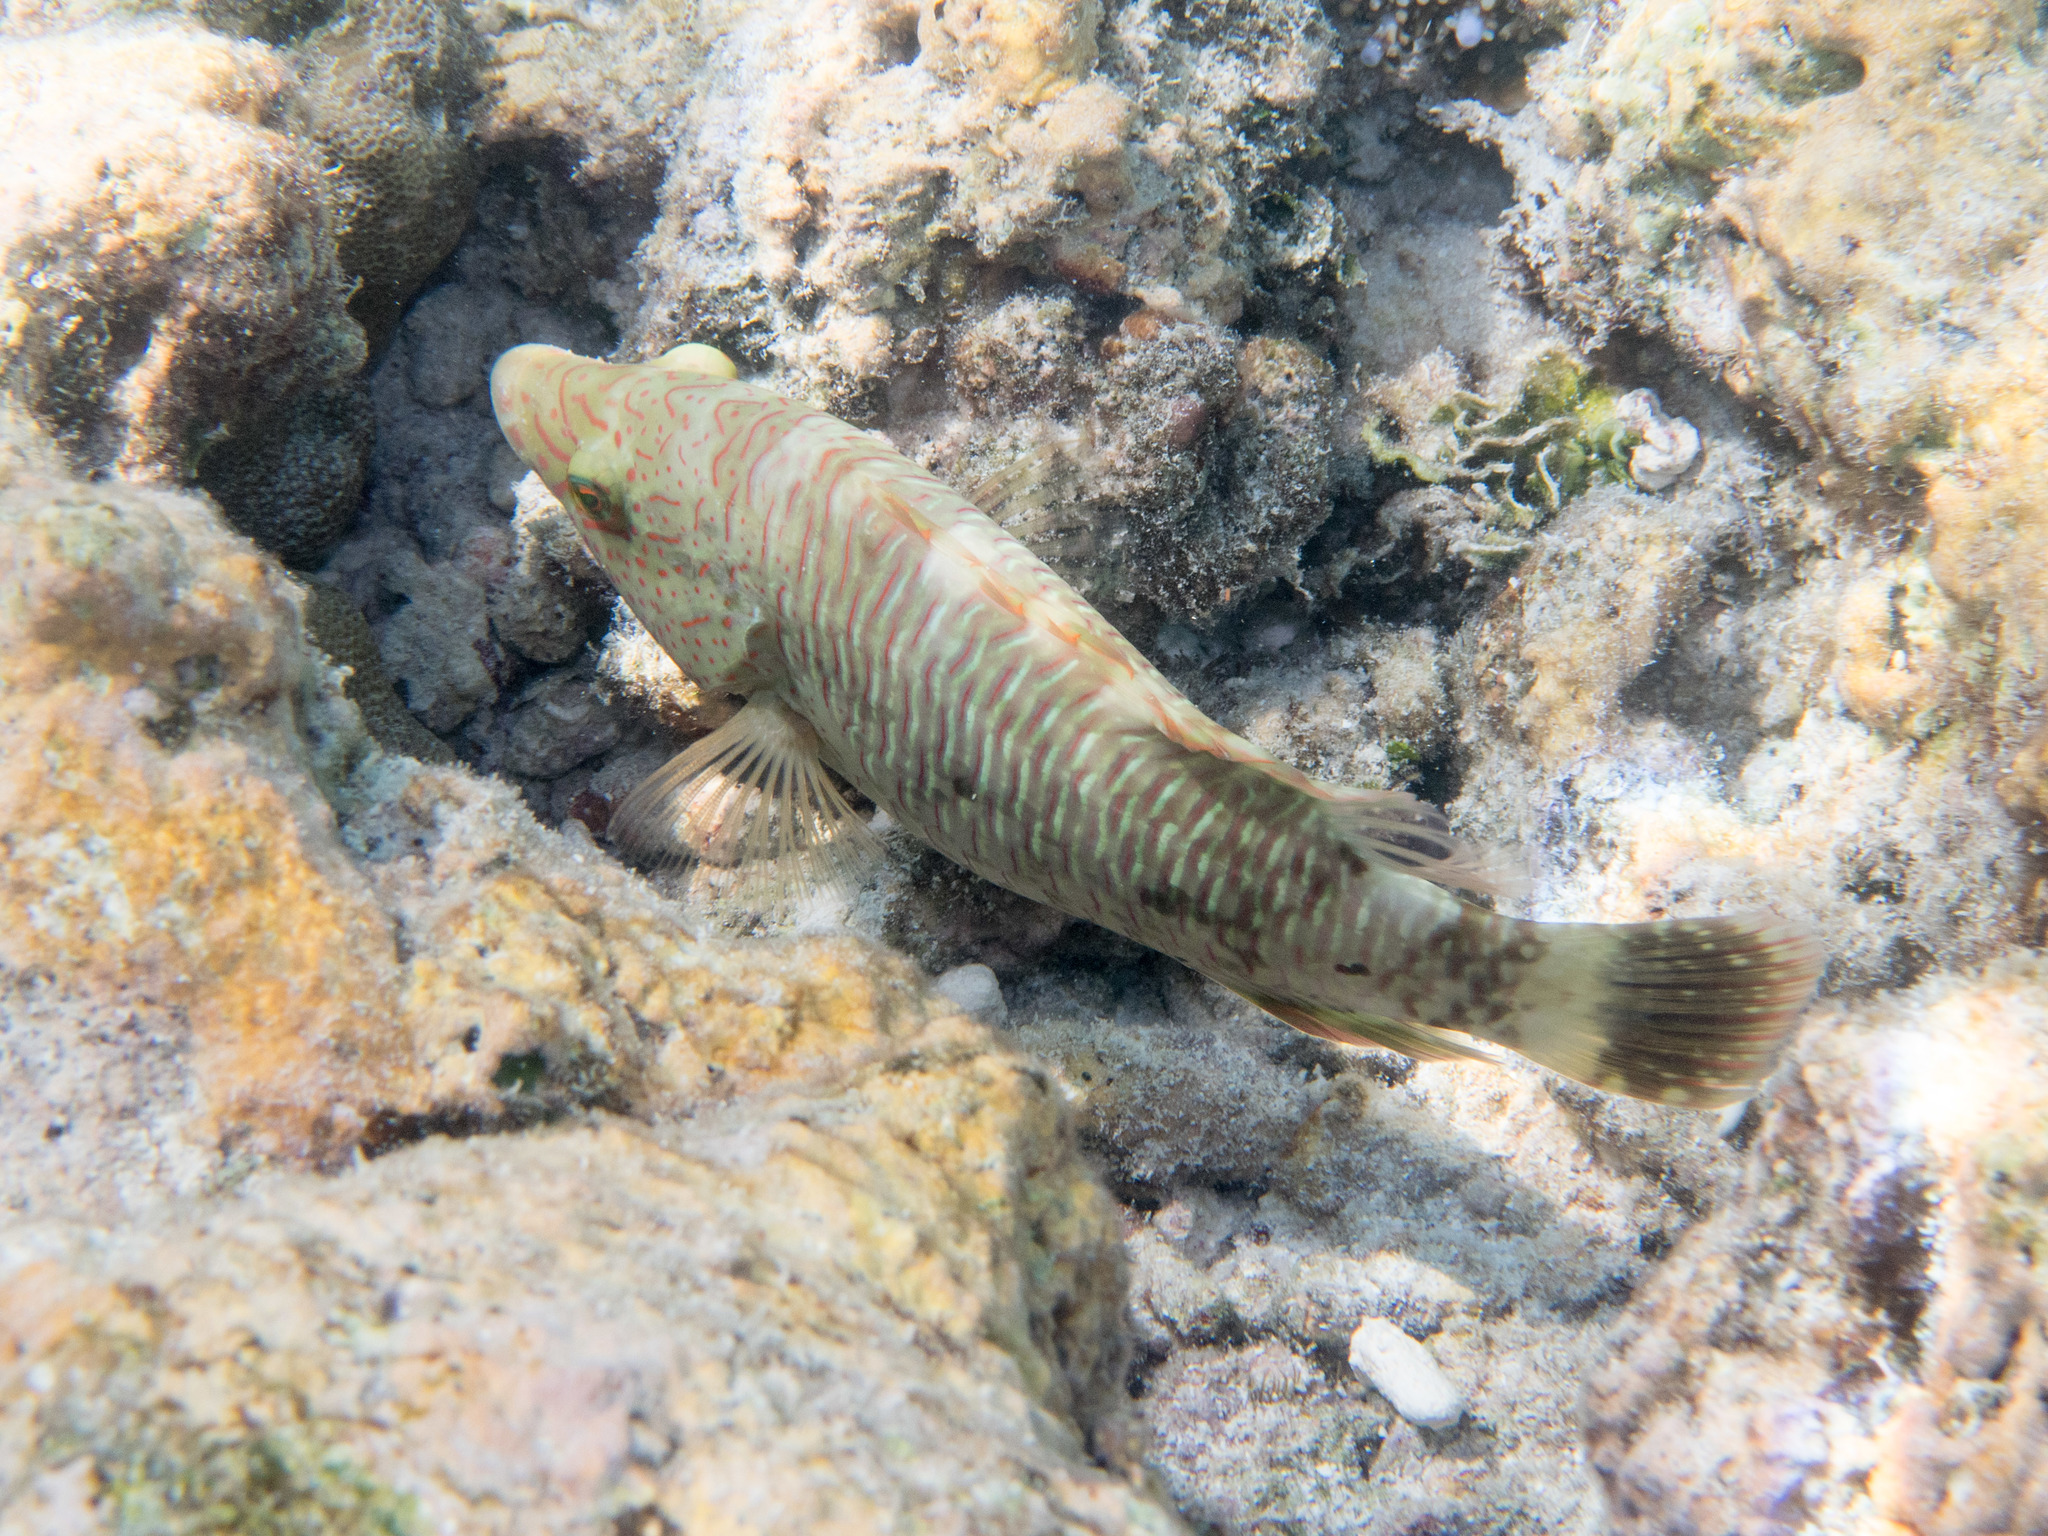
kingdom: Animalia
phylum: Chordata
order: Perciformes
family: Labridae
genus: Cheilinus
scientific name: Cheilinus trilobatus
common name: Tripletail maori wrasse
